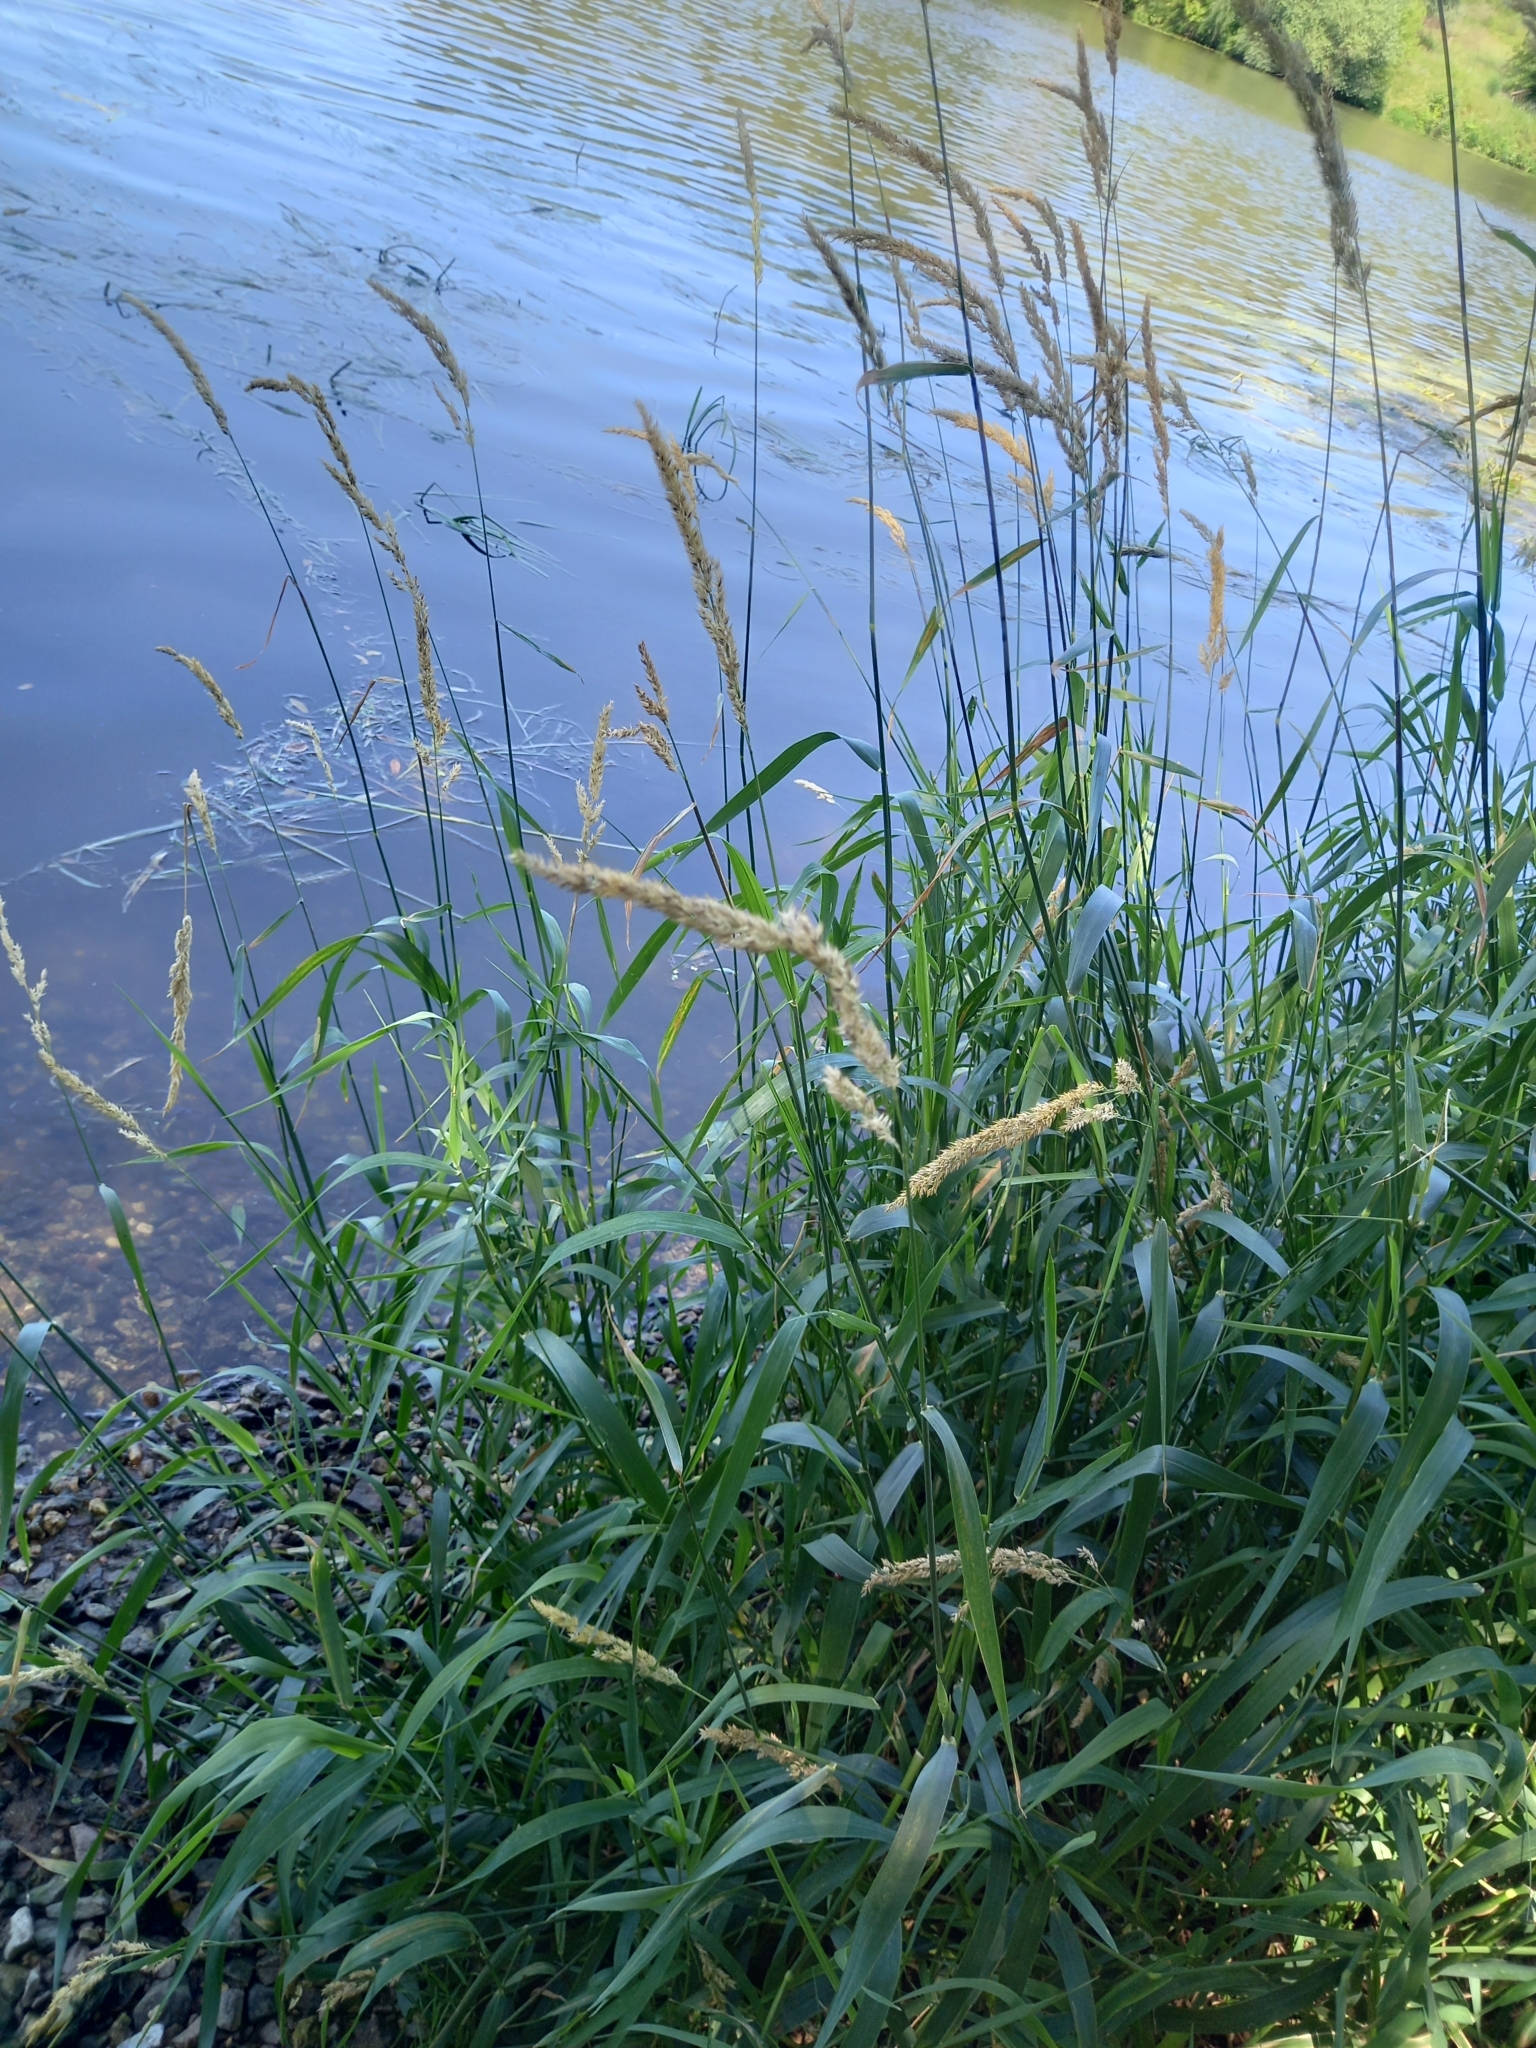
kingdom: Plantae
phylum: Tracheophyta
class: Liliopsida
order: Poales
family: Poaceae
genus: Phalaris
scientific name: Phalaris arundinacea
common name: Reed canary-grass
